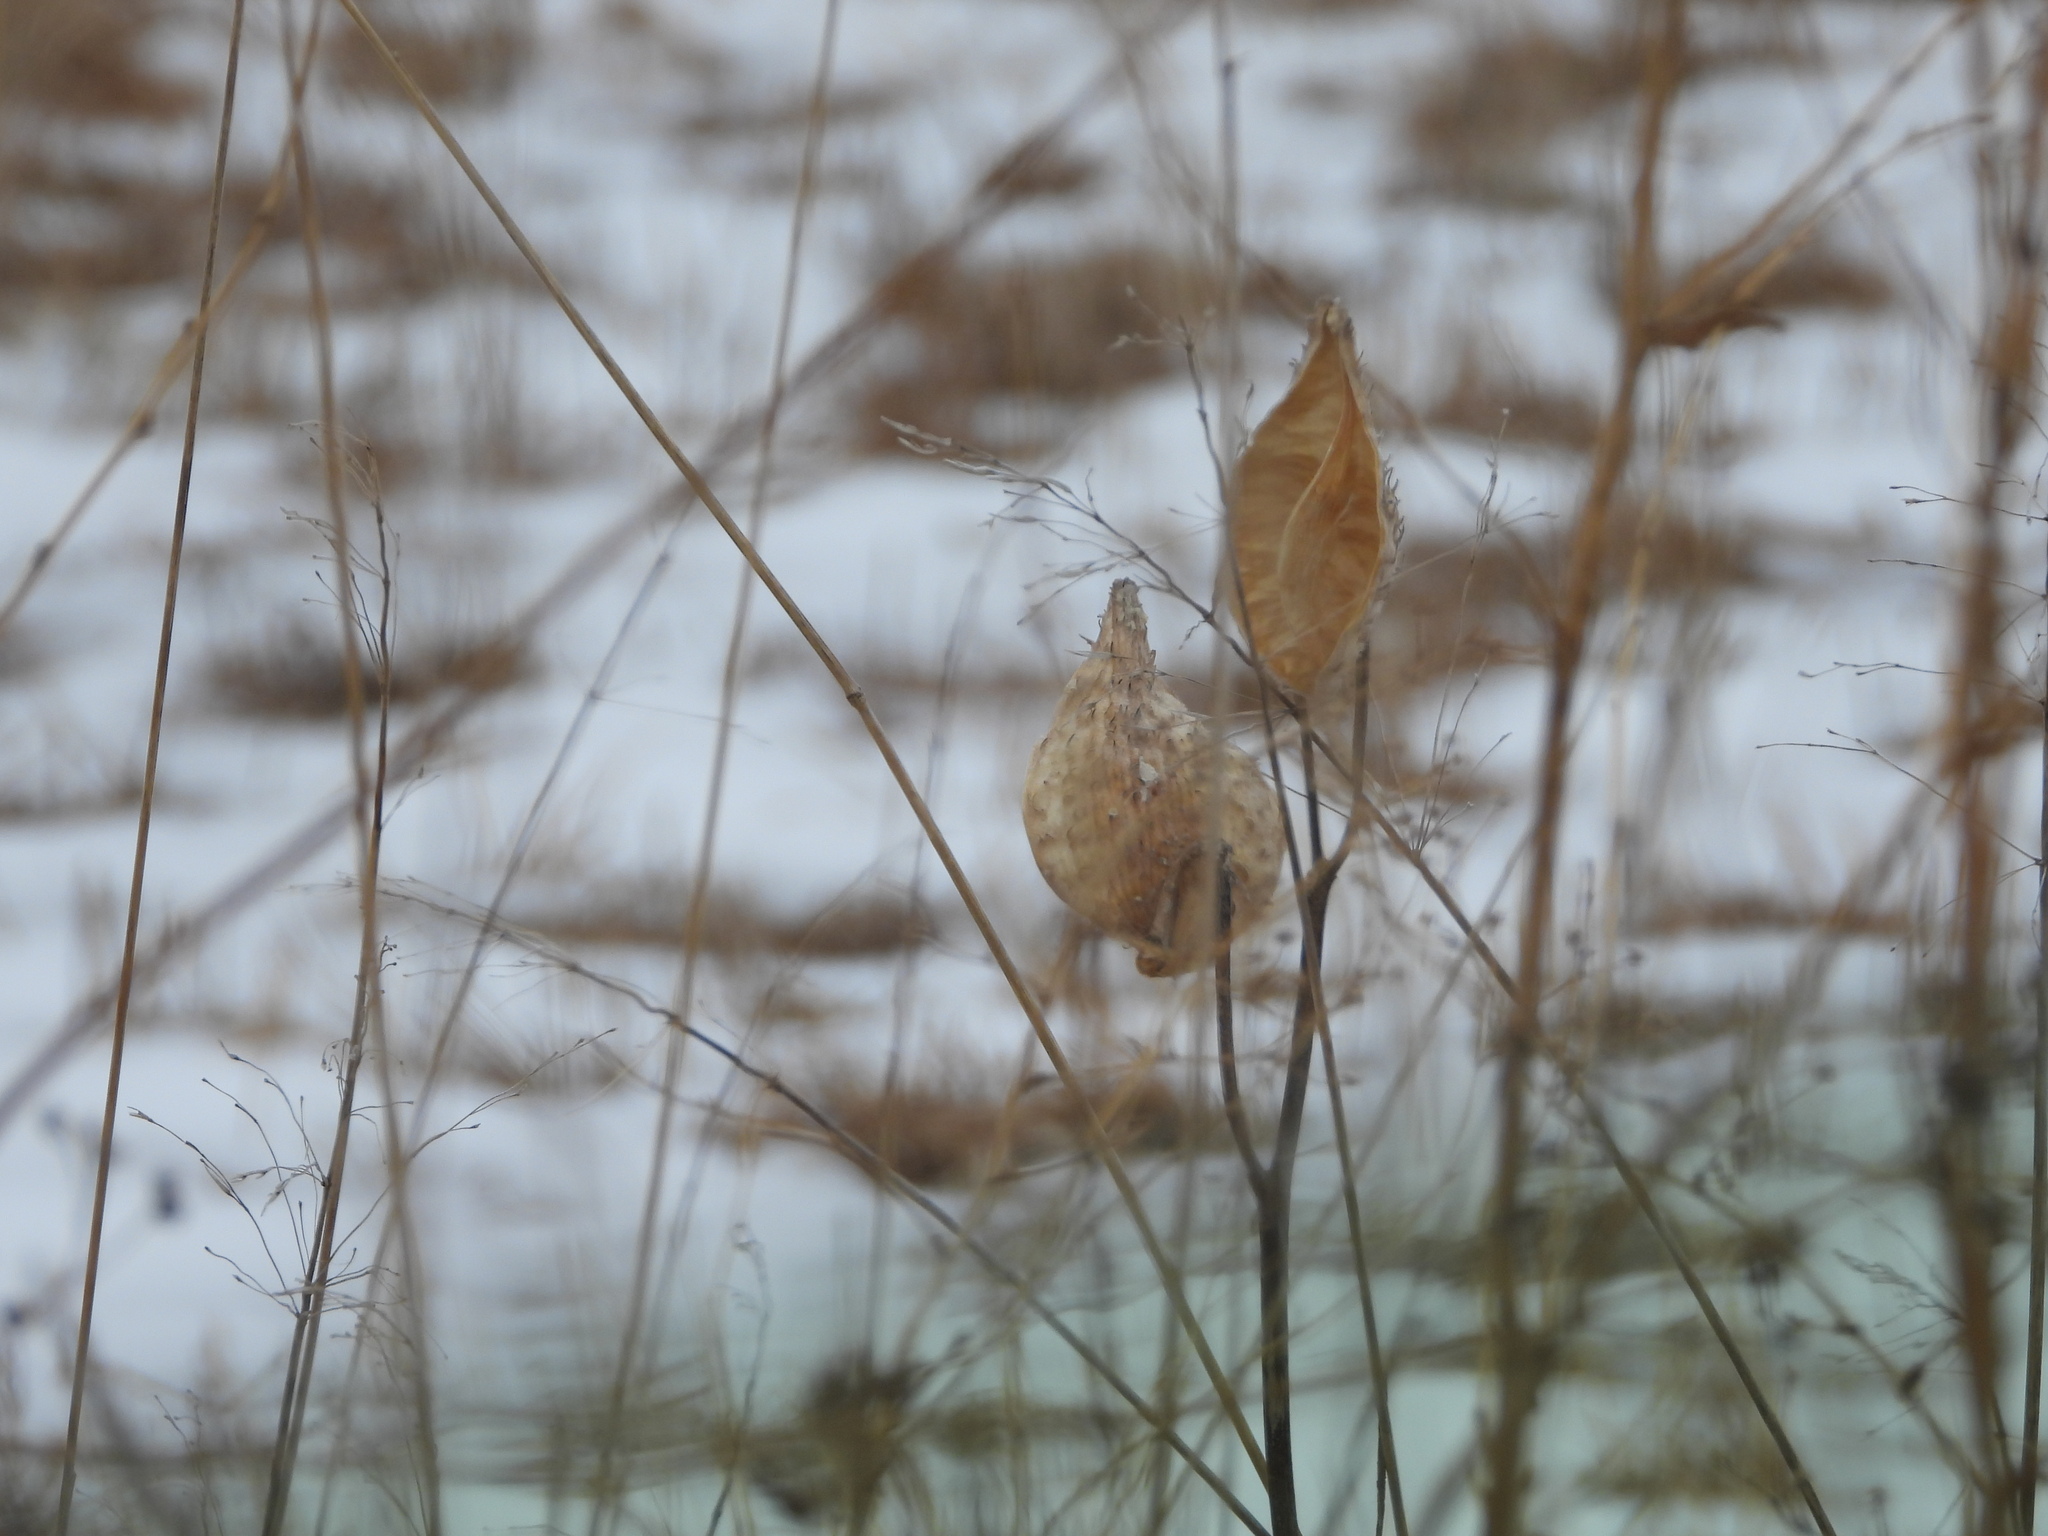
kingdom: Plantae
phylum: Tracheophyta
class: Magnoliopsida
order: Gentianales
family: Apocynaceae
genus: Asclepias
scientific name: Asclepias speciosa
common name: Showy milkweed
